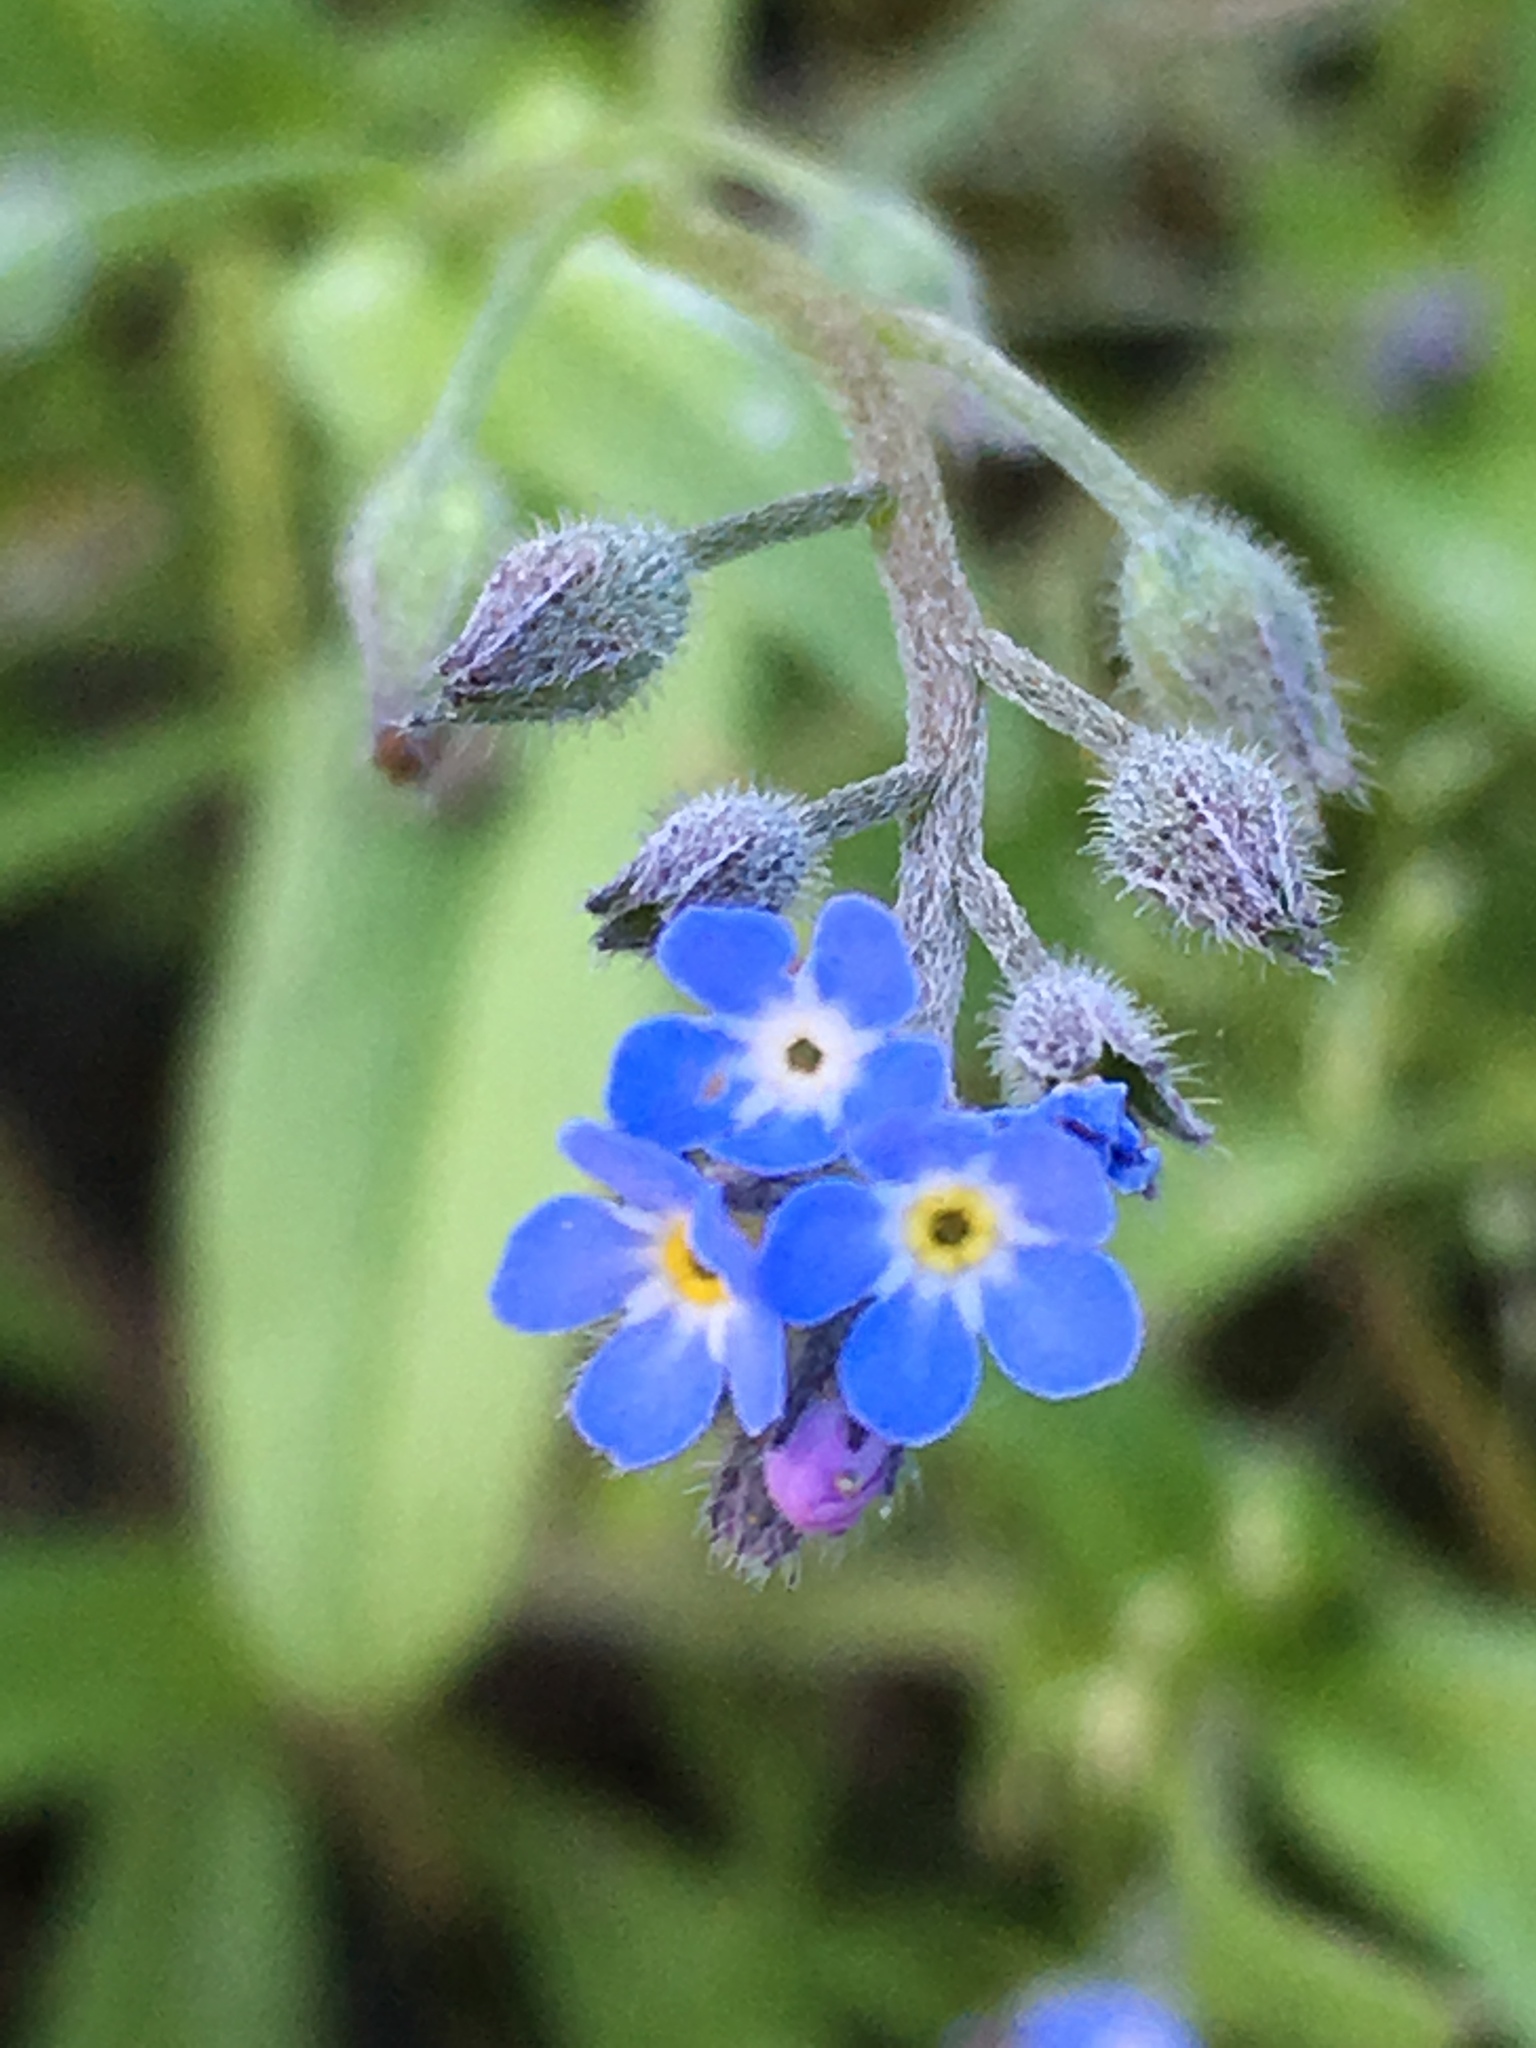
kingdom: Plantae
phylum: Tracheophyta
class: Magnoliopsida
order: Boraginales
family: Boraginaceae
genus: Myosotis
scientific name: Myosotis arvensis
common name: Field forget-me-not
